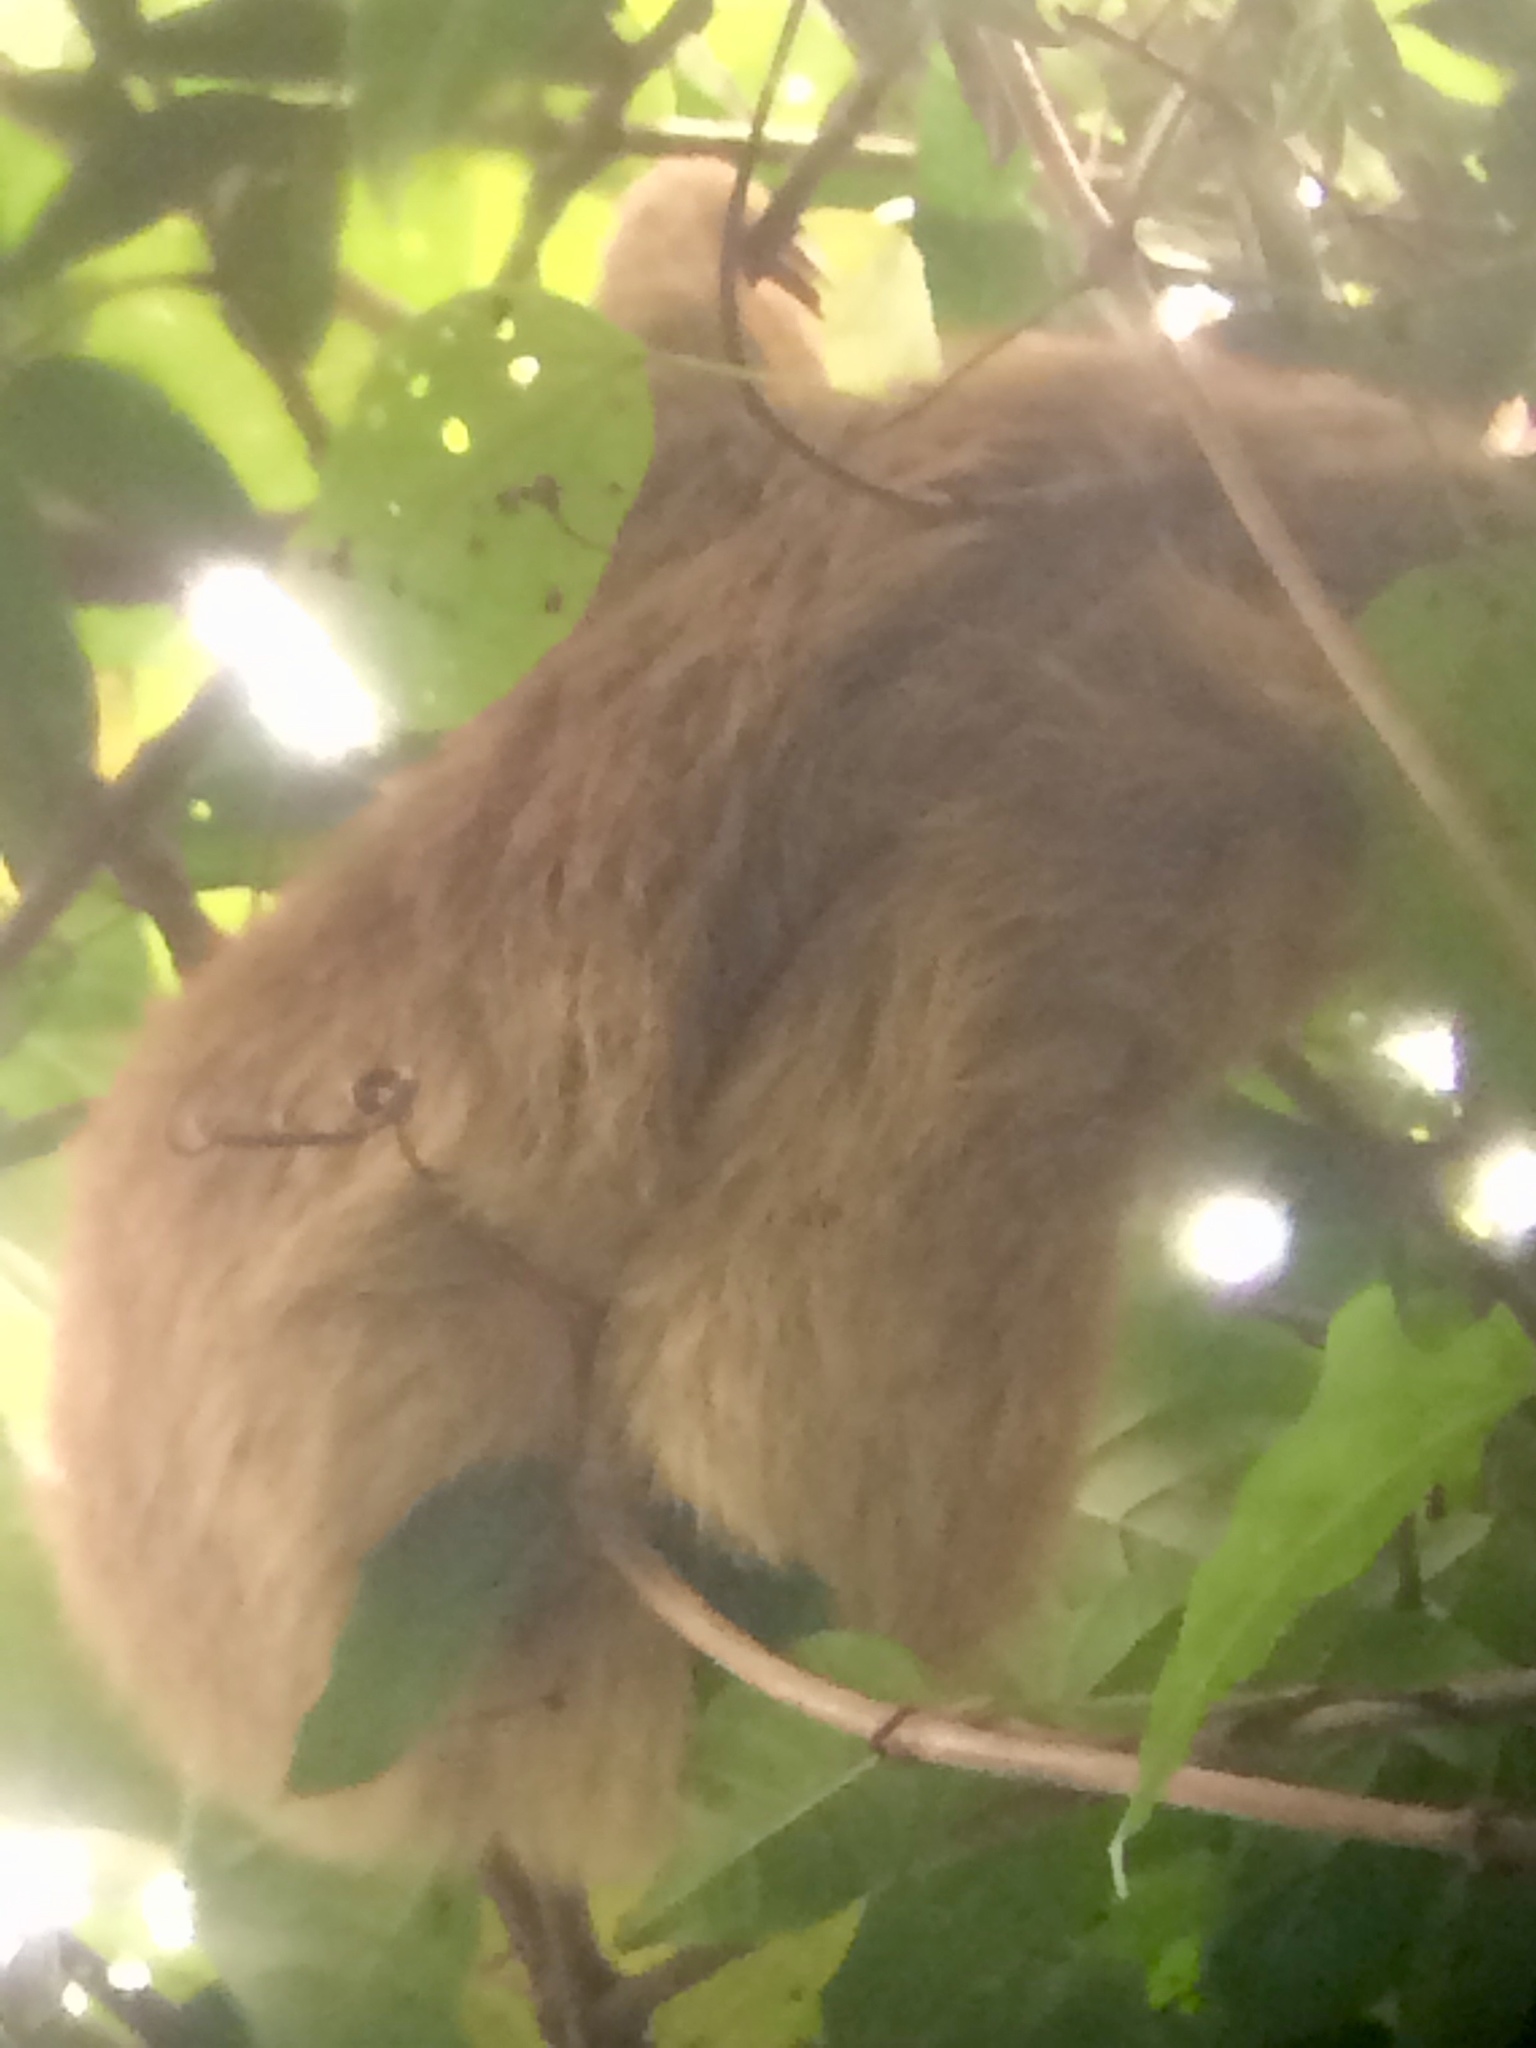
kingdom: Animalia
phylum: Chordata
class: Mammalia
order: Pilosa
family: Megalonychidae
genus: Choloepus
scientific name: Choloepus hoffmanni
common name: Hoffmann's two-toed sloth
